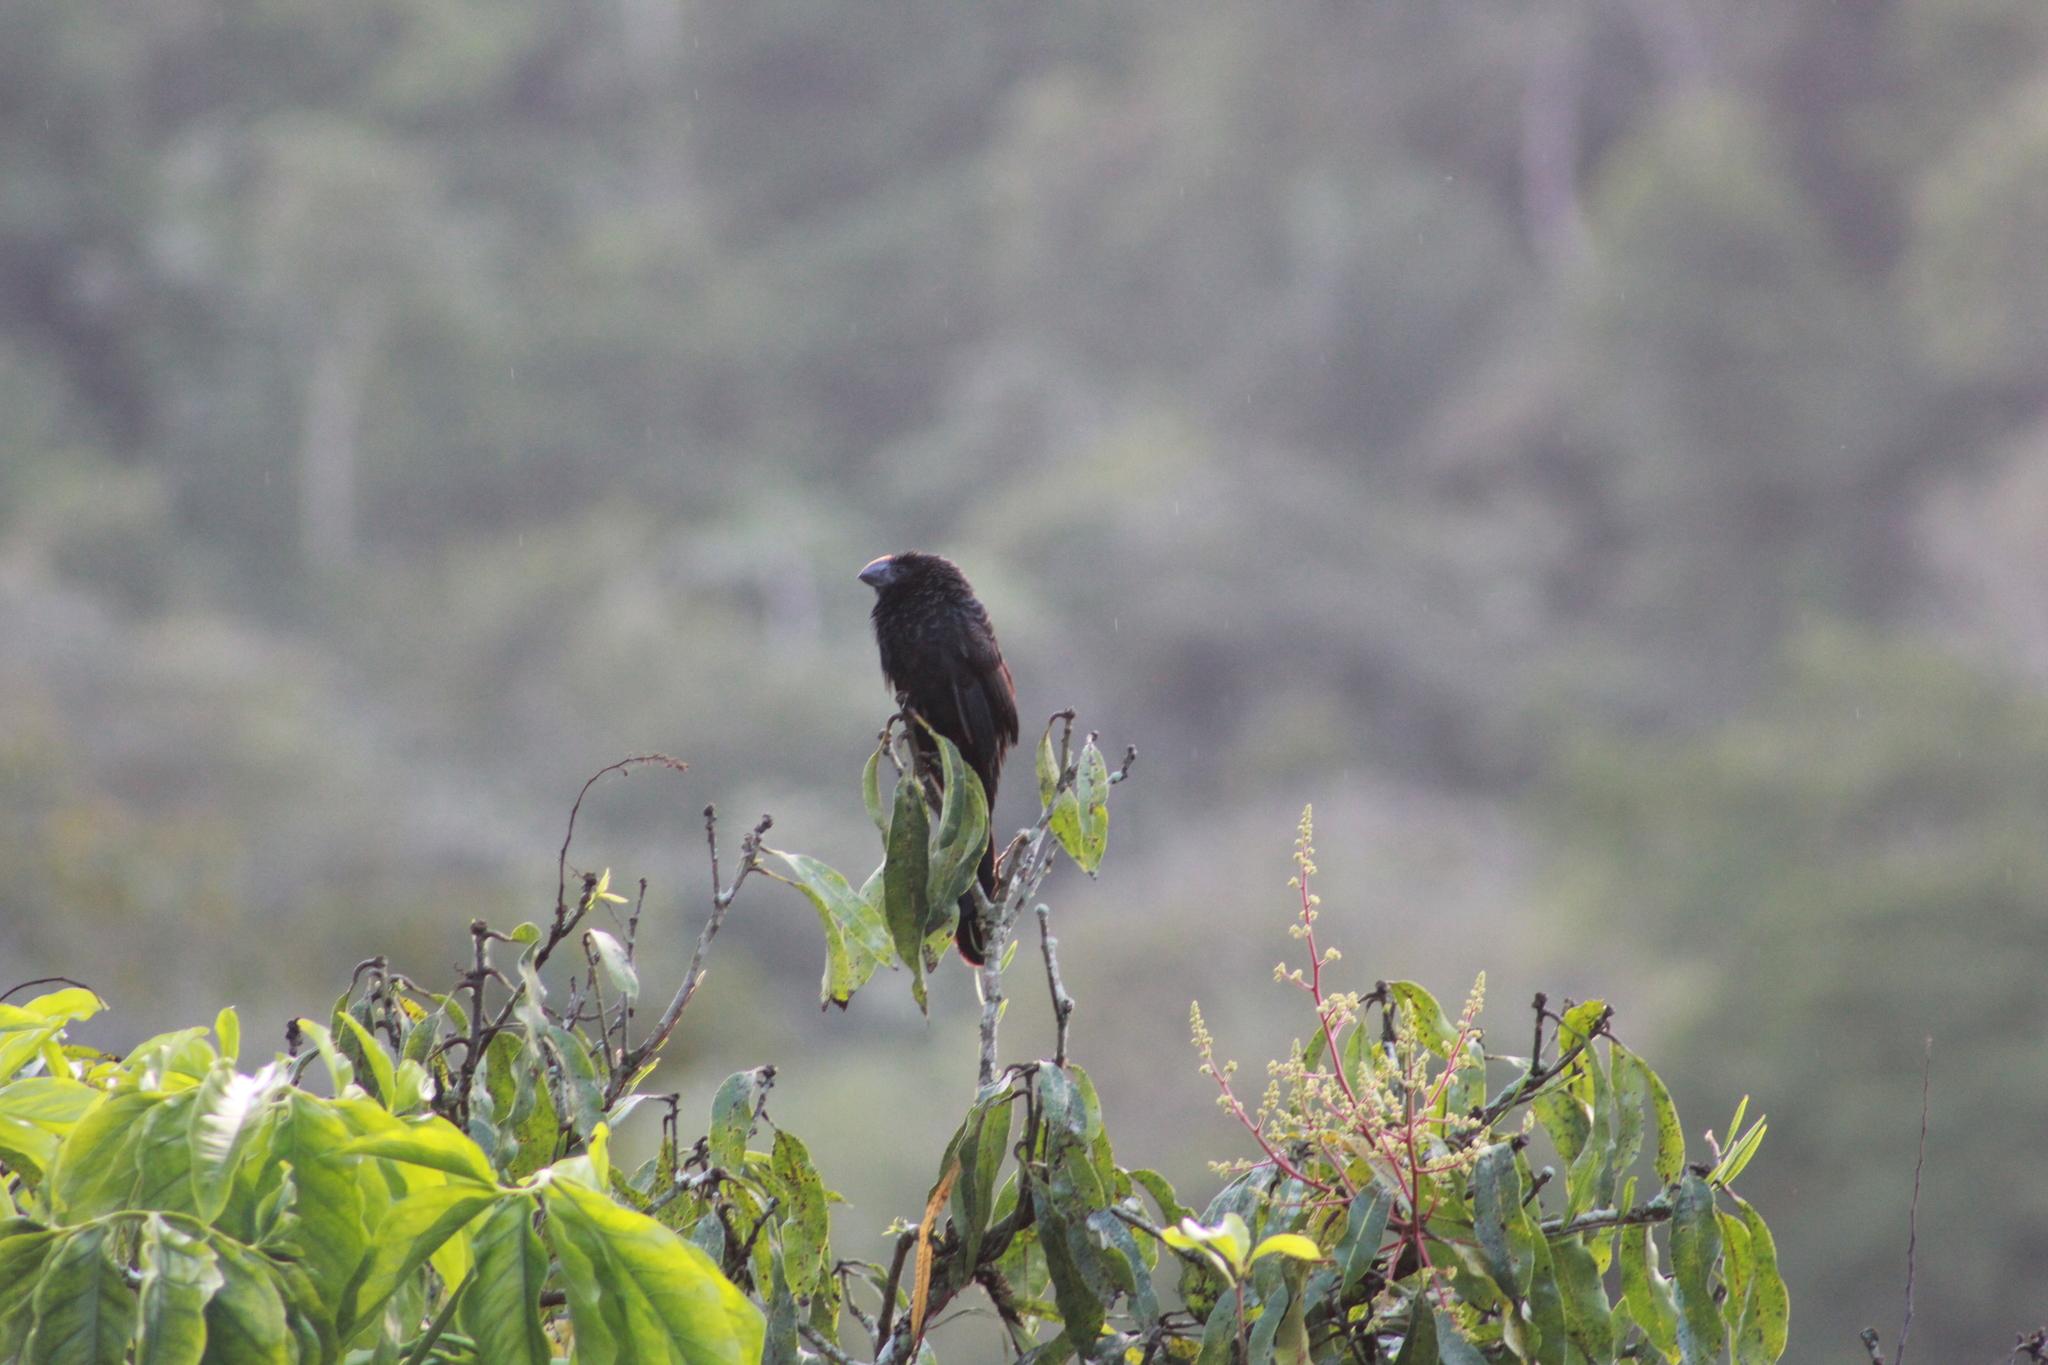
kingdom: Animalia
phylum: Chordata
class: Aves
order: Cuculiformes
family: Cuculidae
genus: Crotophaga
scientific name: Crotophaga ani
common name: Smooth-billed ani
